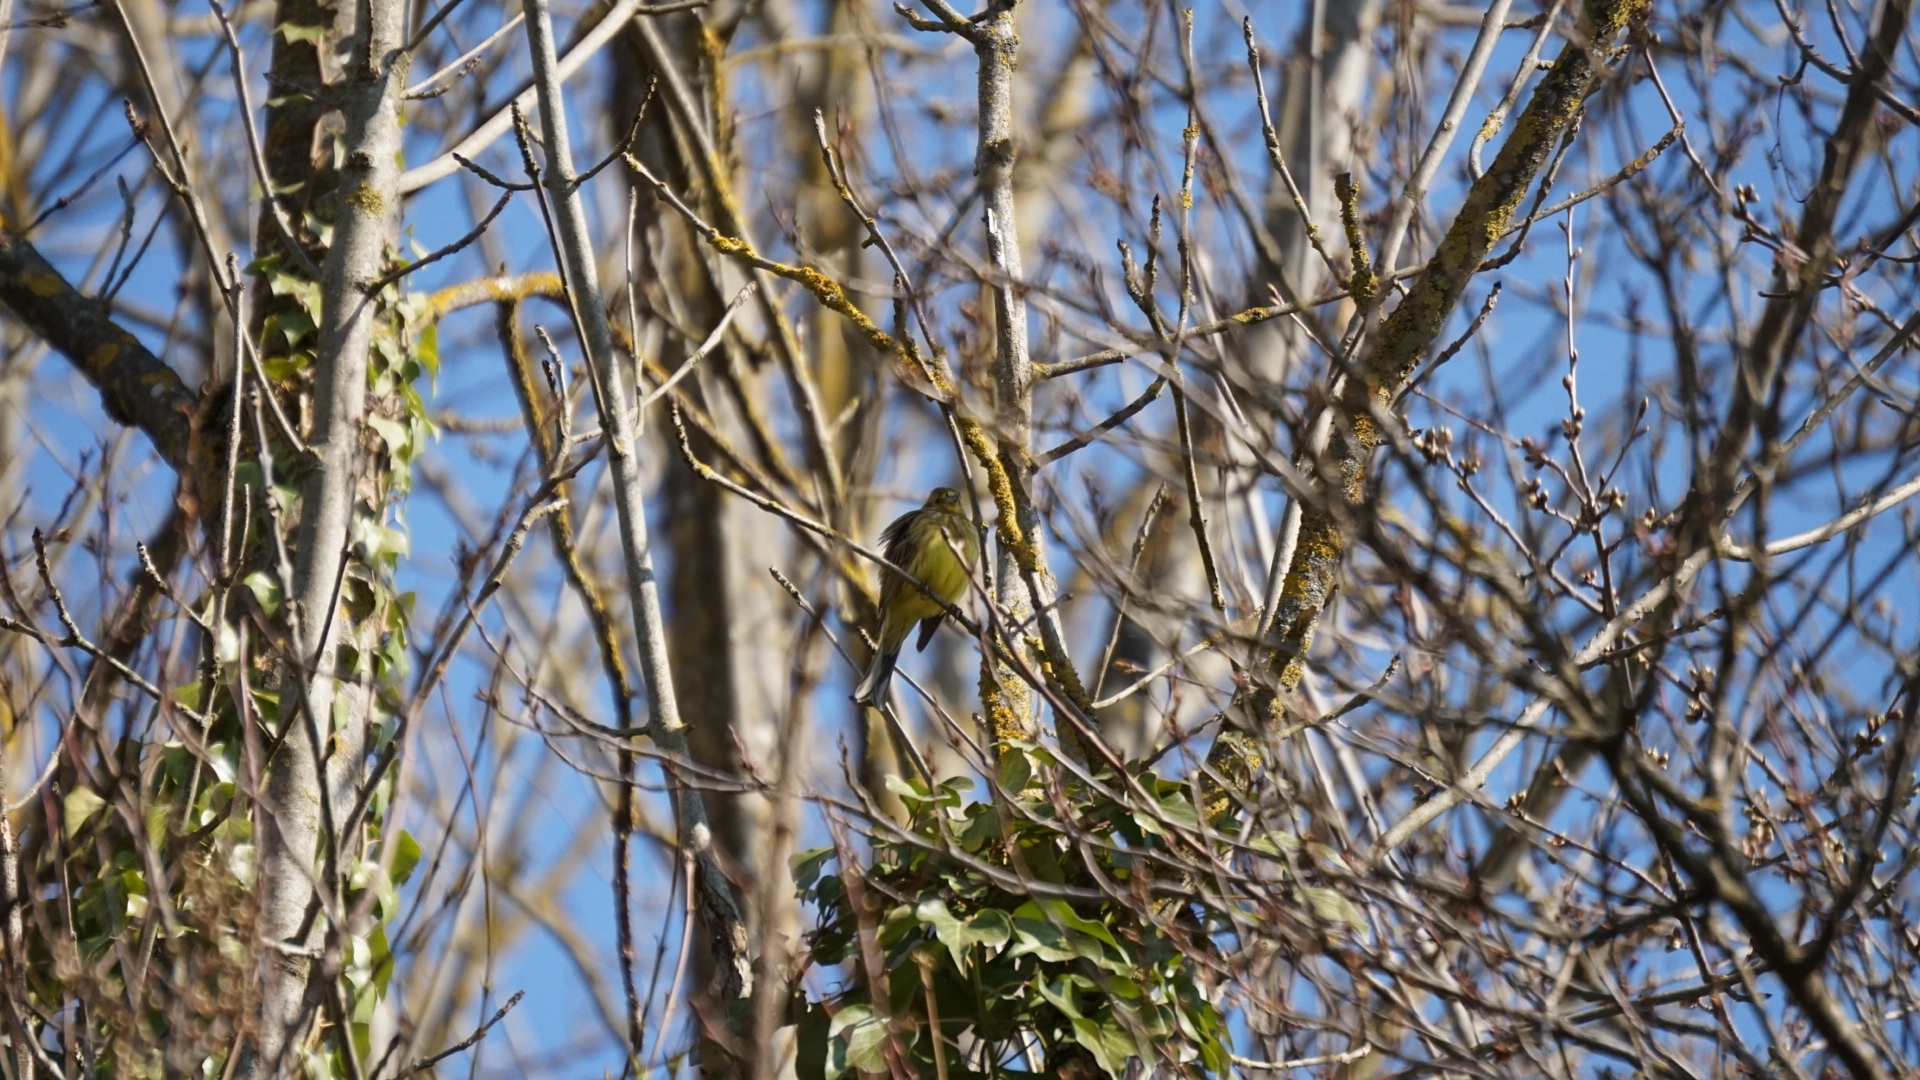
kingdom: Animalia
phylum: Chordata
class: Aves
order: Passeriformes
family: Emberizidae
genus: Emberiza
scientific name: Emberiza citrinella
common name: Yellowhammer
